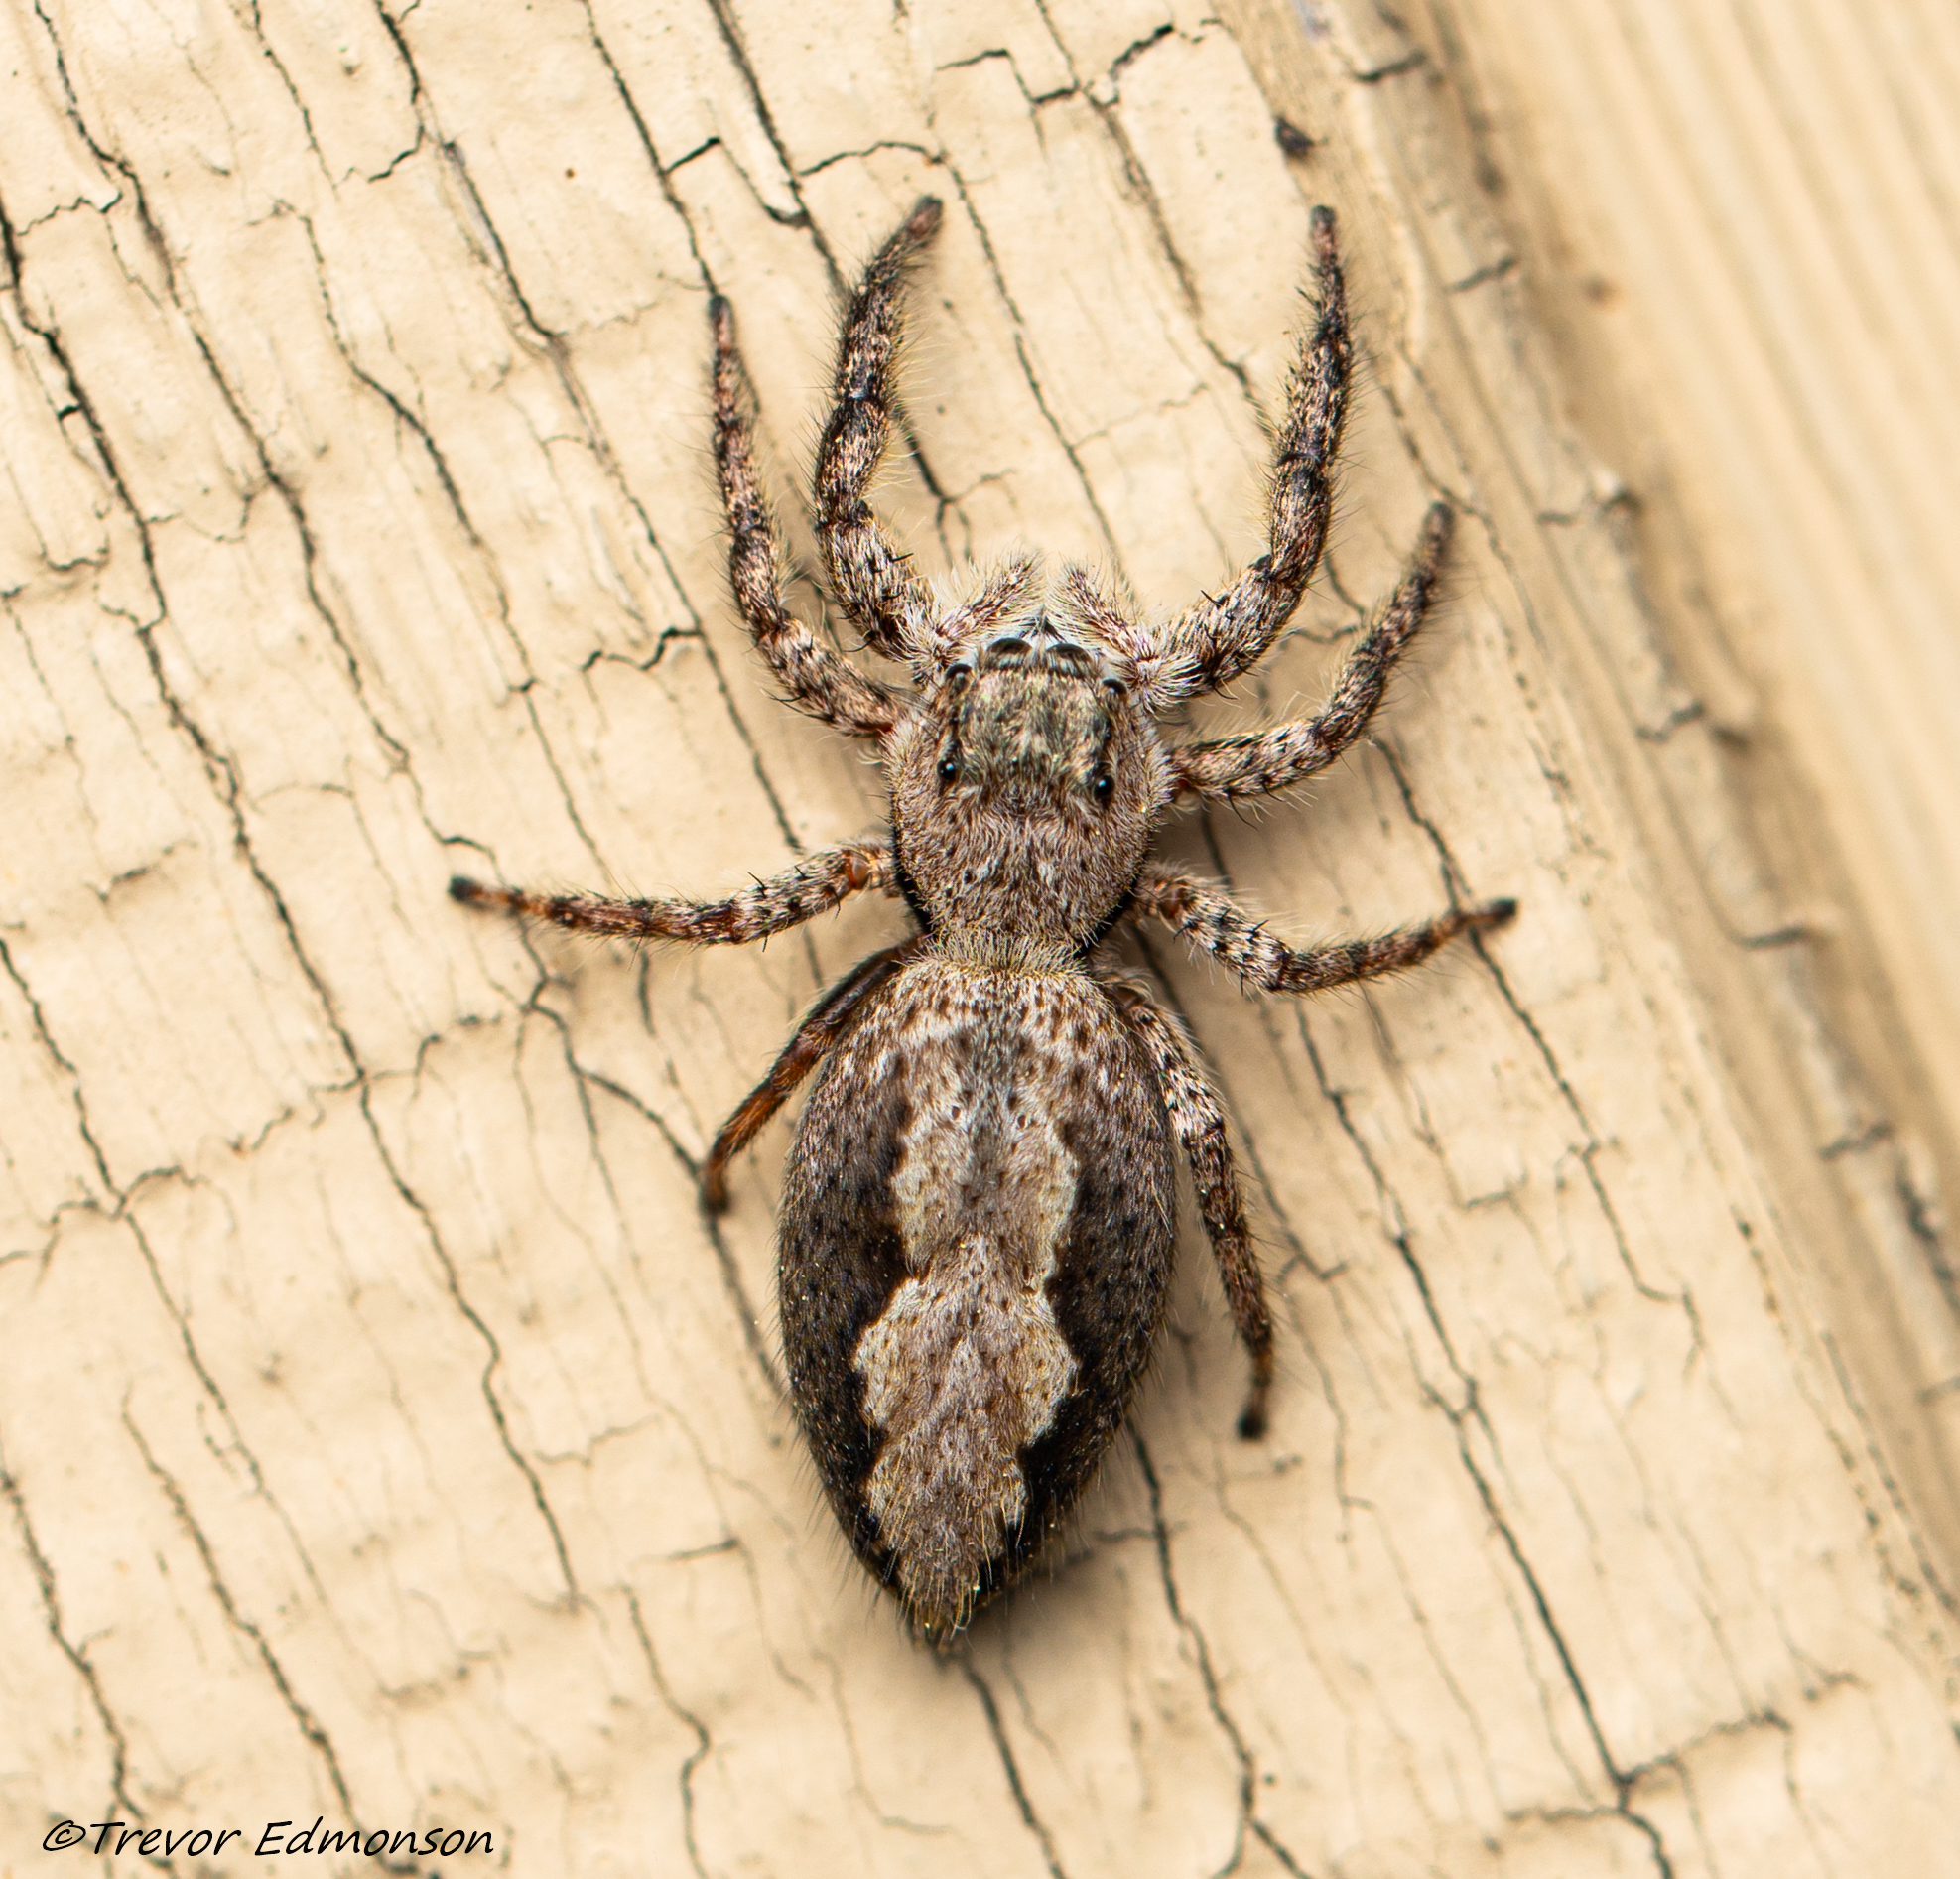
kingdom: Animalia
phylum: Arthropoda
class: Arachnida
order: Araneae
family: Salticidae
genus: Platycryptus
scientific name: Platycryptus undatus
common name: Tan jumping spider
